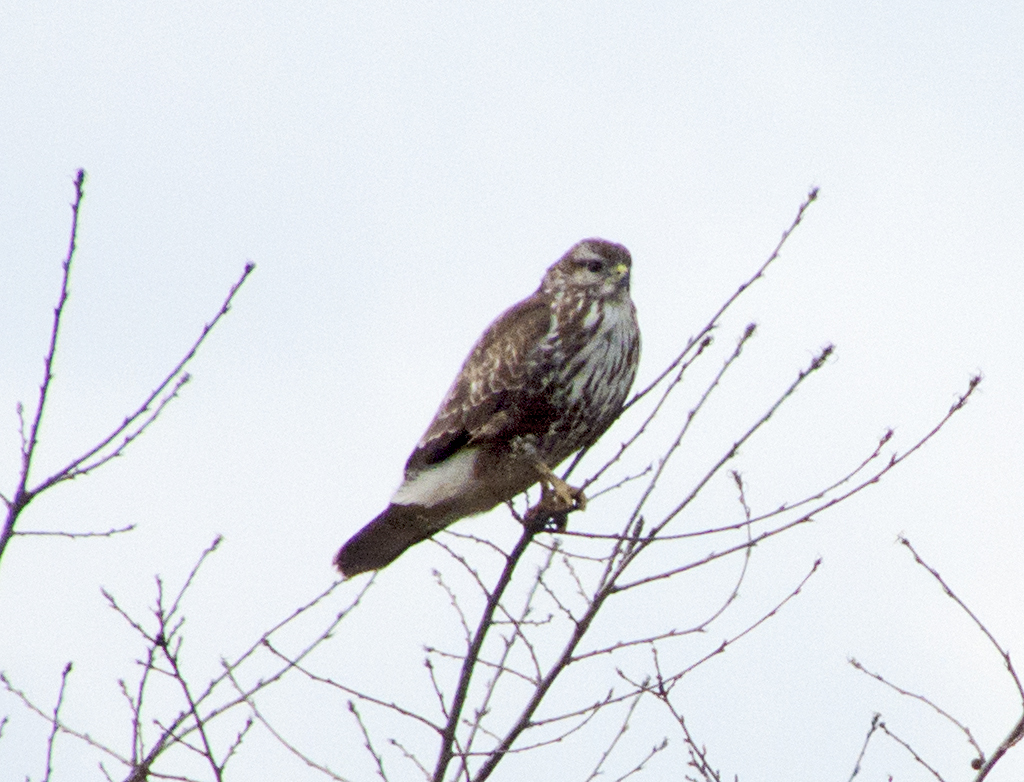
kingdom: Animalia
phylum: Chordata
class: Aves
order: Accipitriformes
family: Accipitridae
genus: Buteo
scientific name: Buteo buteo
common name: Common buzzard
